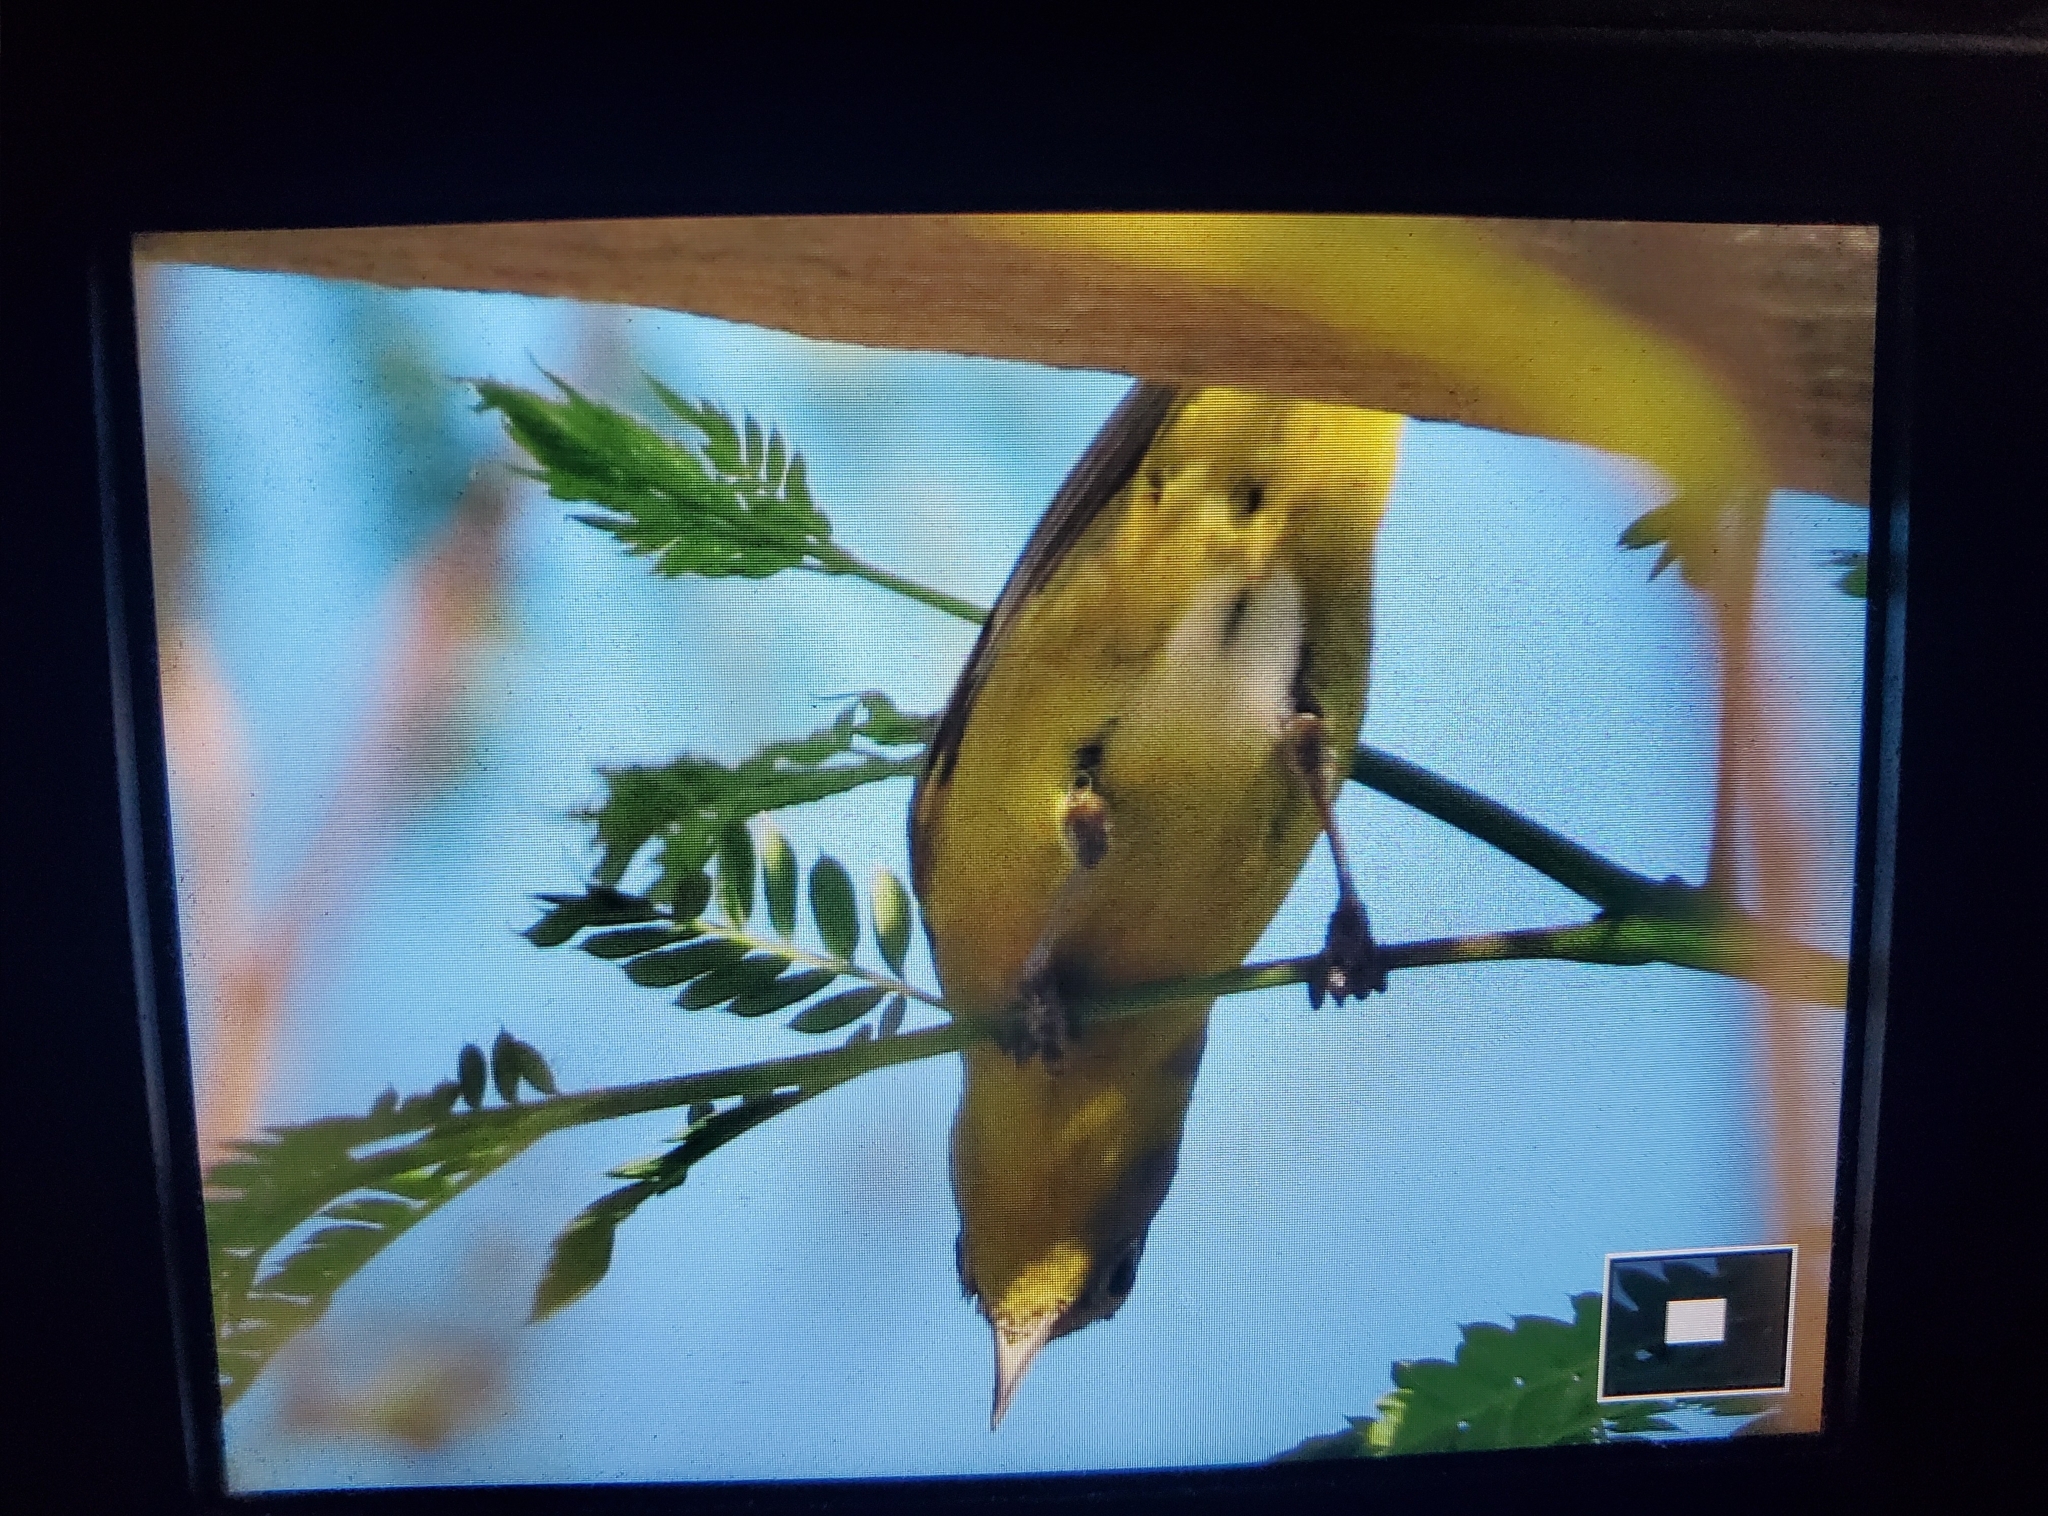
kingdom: Animalia
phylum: Chordata
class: Aves
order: Passeriformes
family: Parulidae
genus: Leiothlypis
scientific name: Leiothlypis ruficapilla
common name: Nashville warbler
